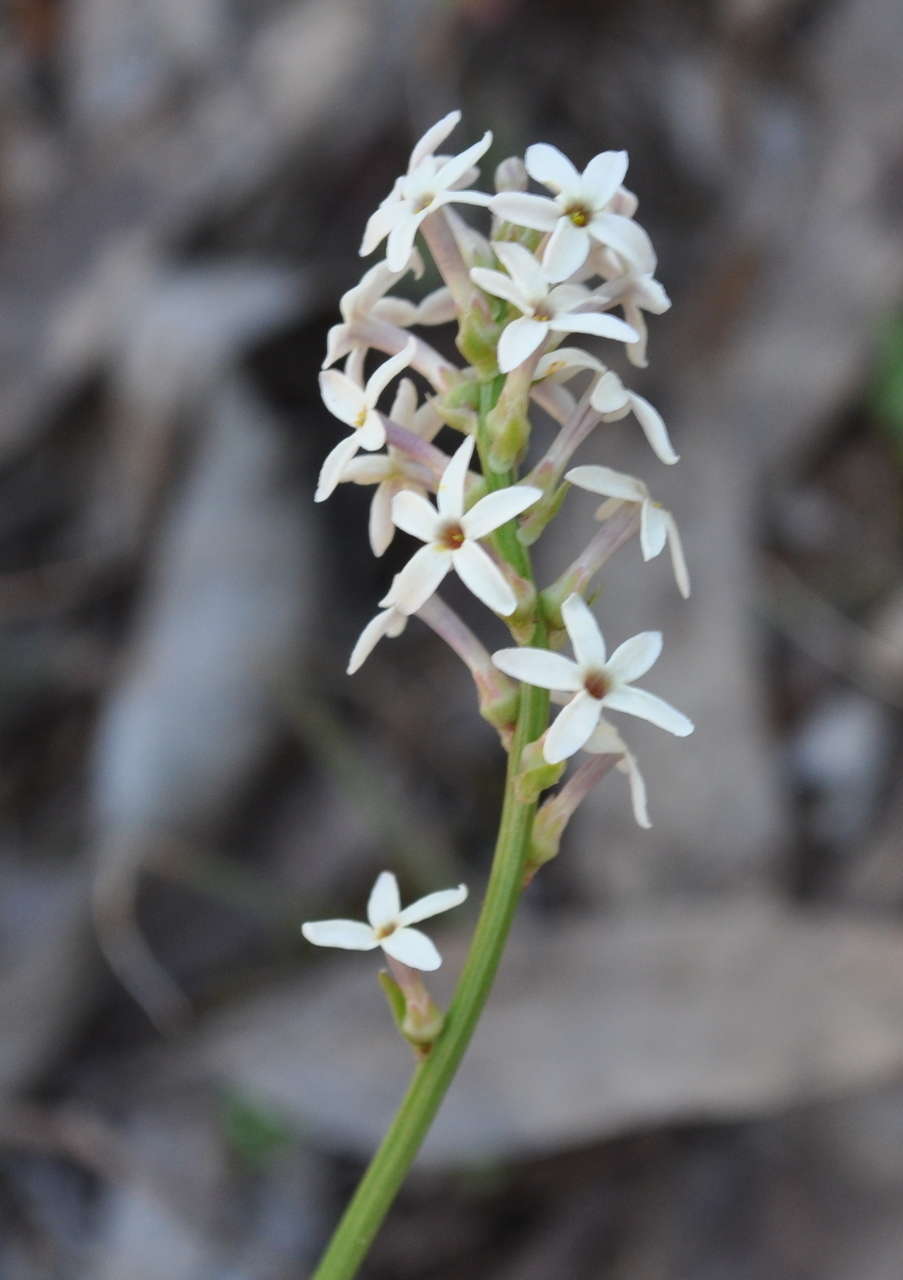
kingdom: Plantae
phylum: Tracheophyta
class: Magnoliopsida
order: Celastrales
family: Celastraceae
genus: Stackhousia
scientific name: Stackhousia monogyna
